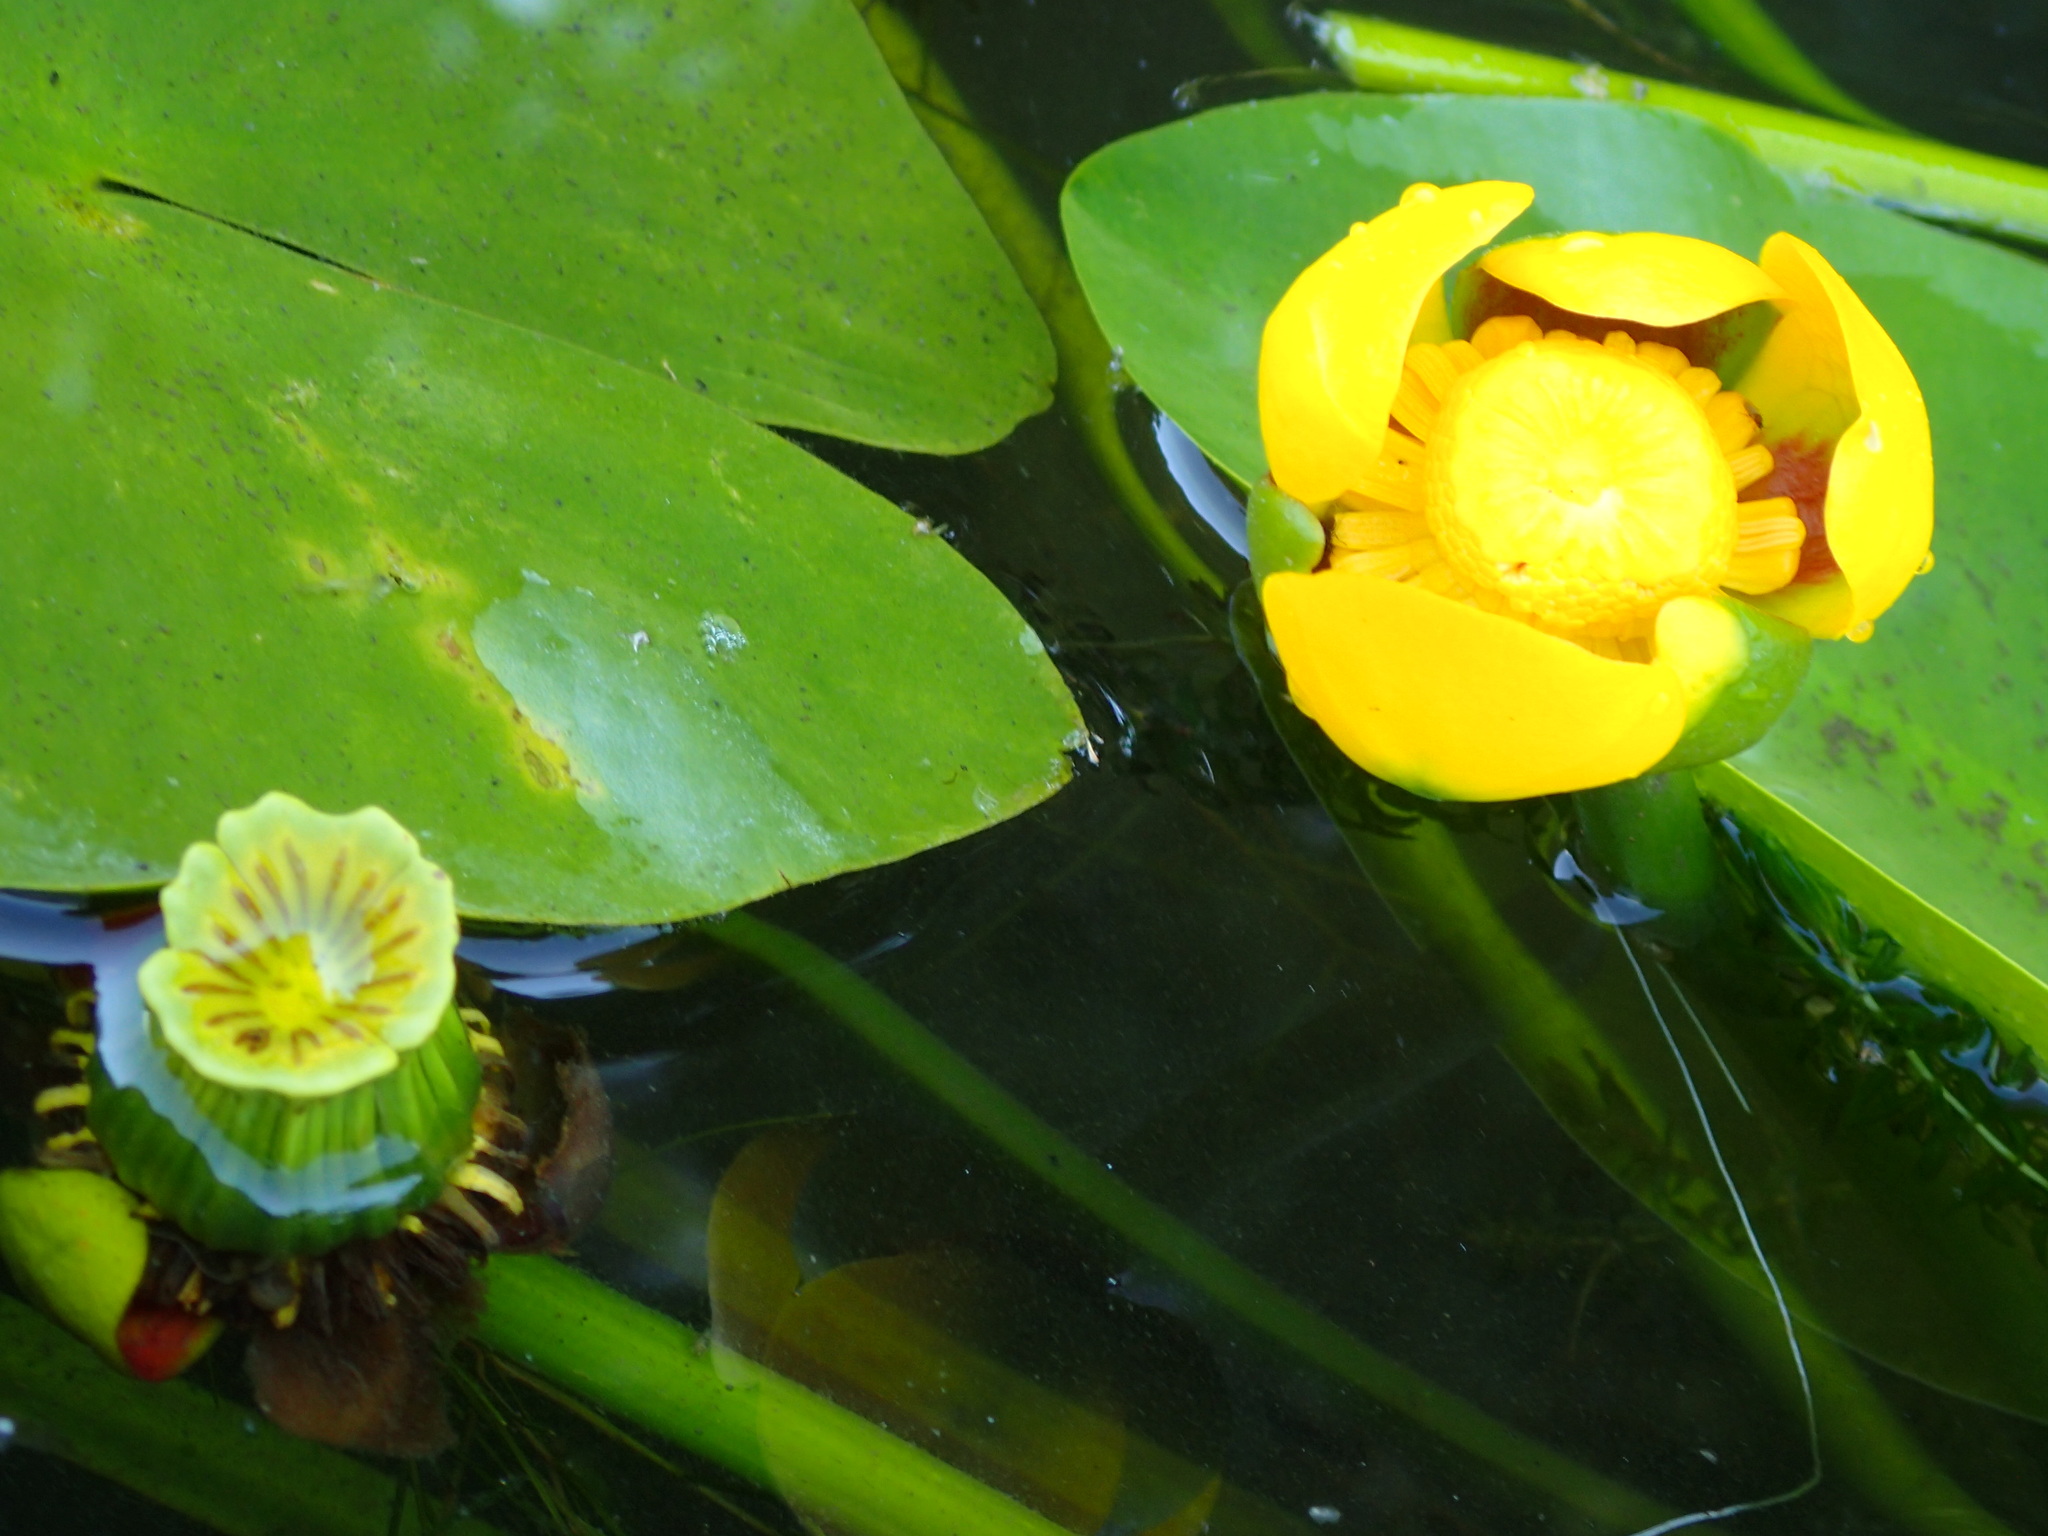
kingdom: Plantae
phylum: Tracheophyta
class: Magnoliopsida
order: Nymphaeales
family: Nymphaeaceae
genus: Nuphar
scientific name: Nuphar variegata
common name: Beaver-root
